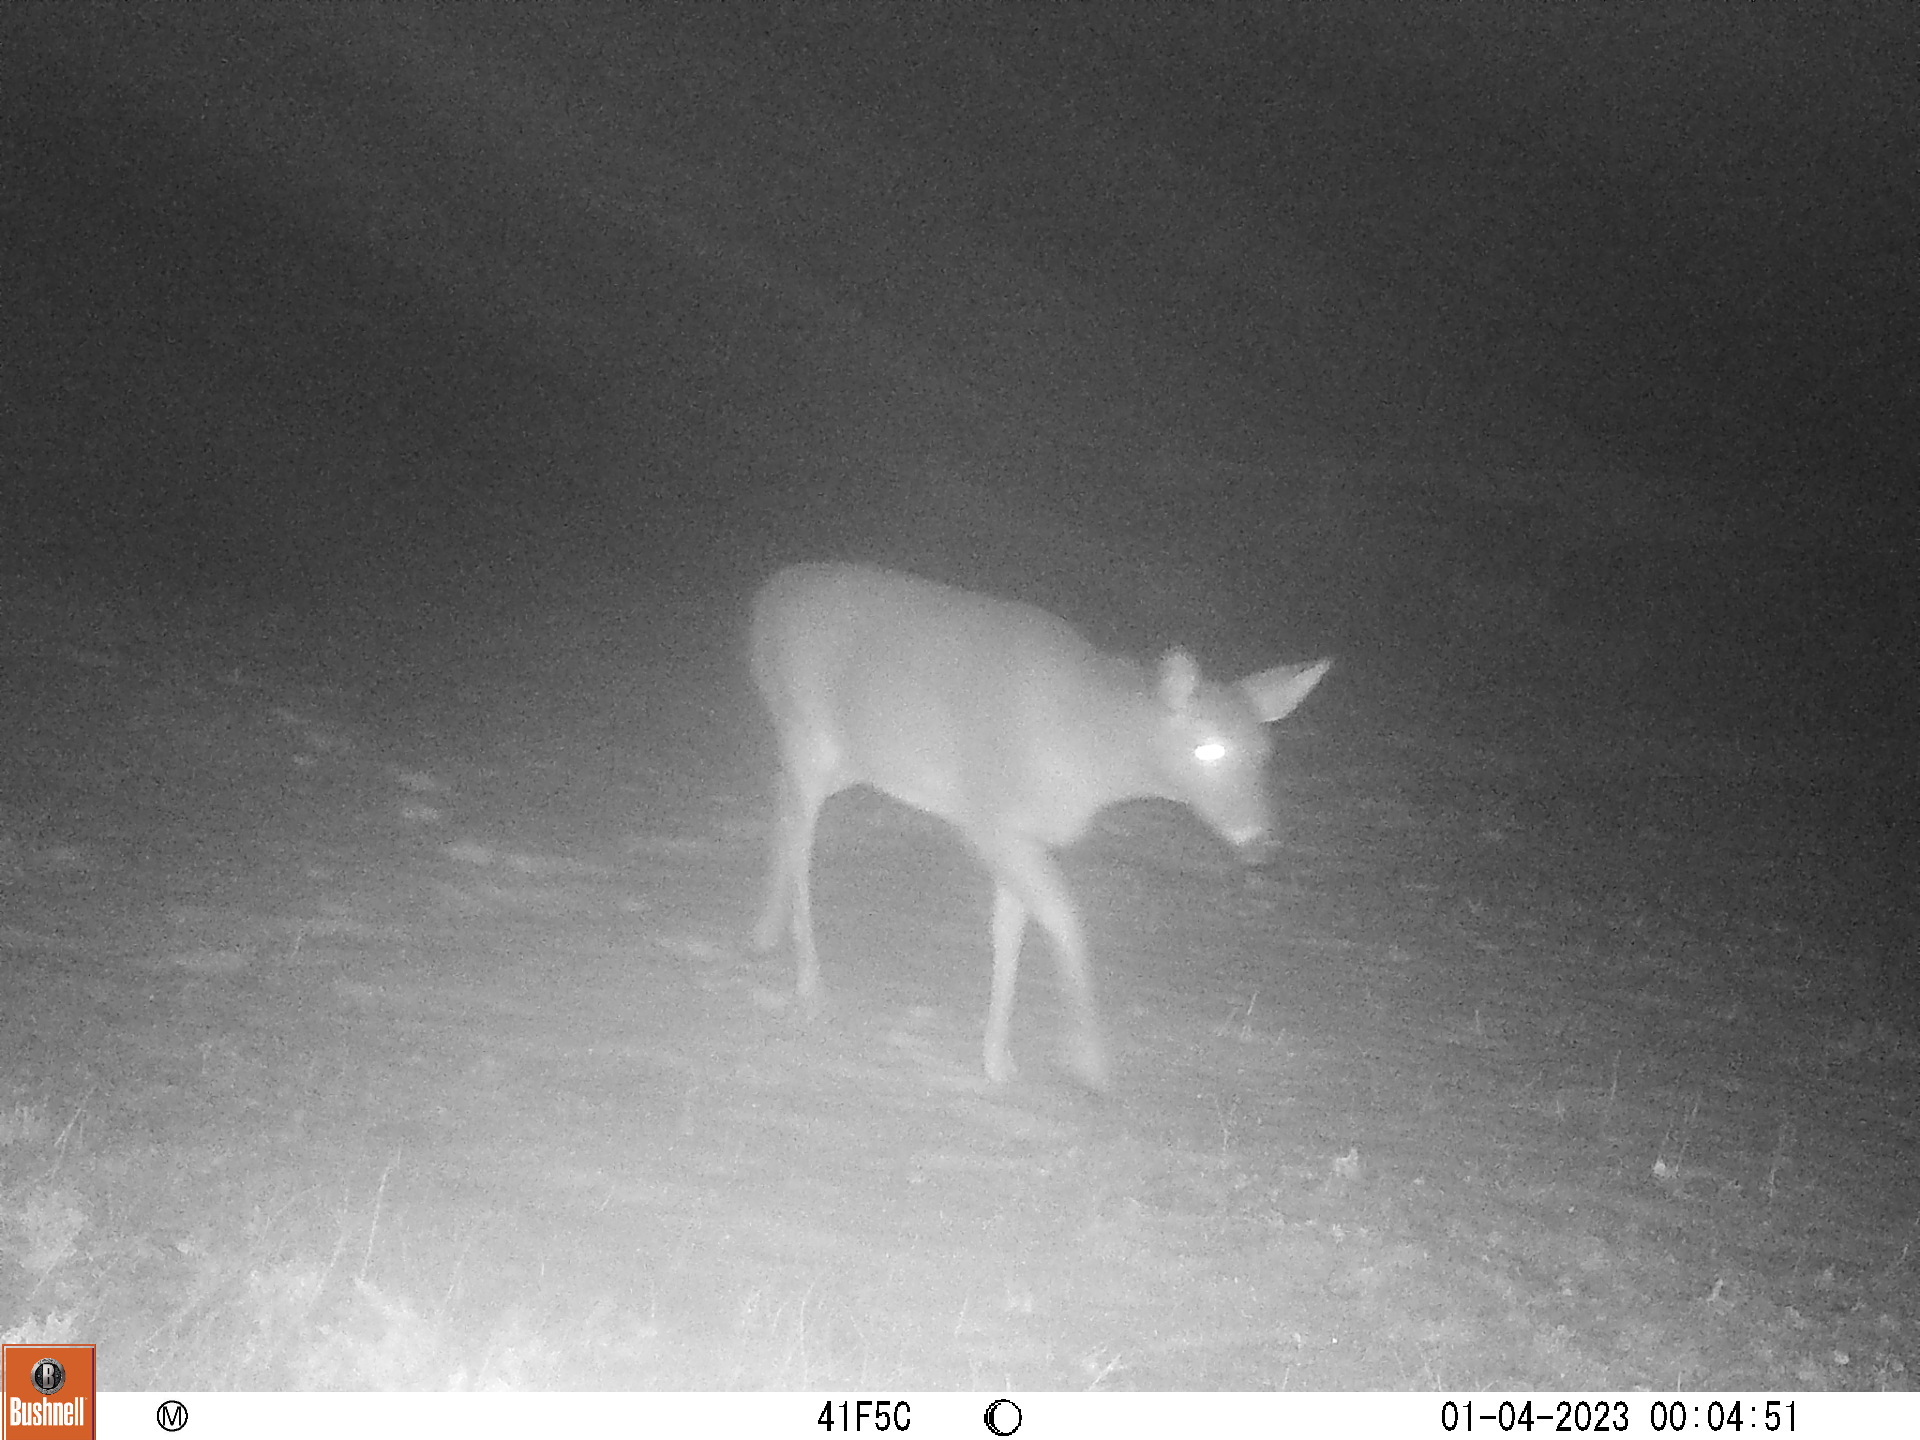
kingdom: Animalia
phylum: Chordata
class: Mammalia
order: Artiodactyla
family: Cervidae
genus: Odocoileus
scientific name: Odocoileus virginianus
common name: White-tailed deer
